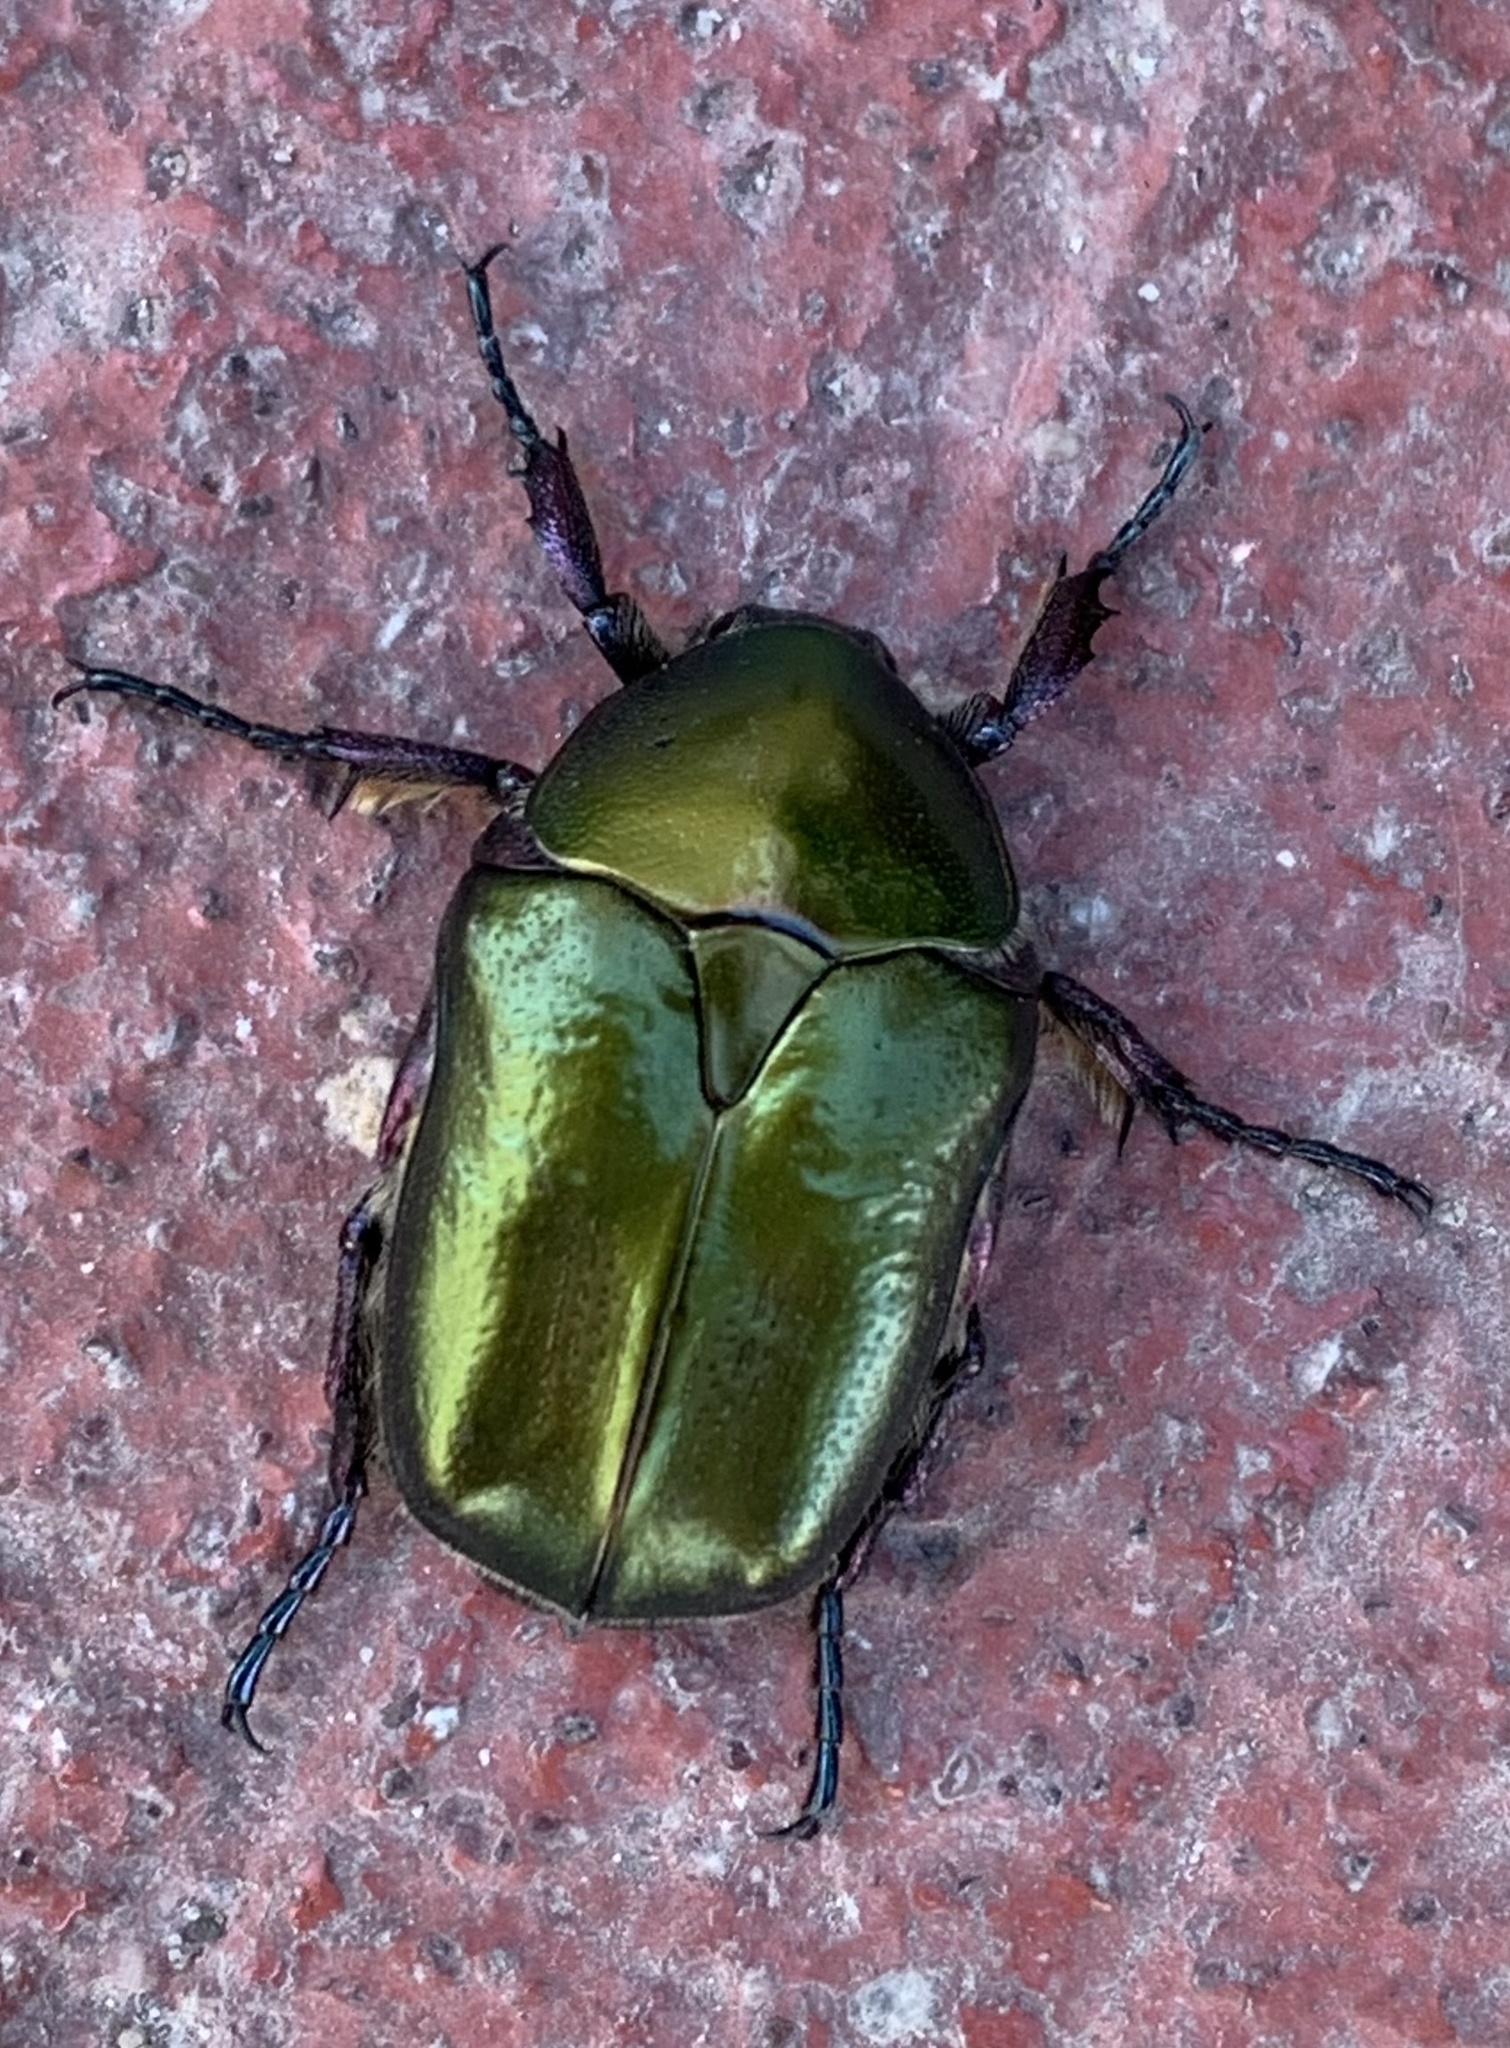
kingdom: Animalia
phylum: Arthropoda
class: Insecta
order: Coleoptera
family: Scarabaeidae
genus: Protaetia
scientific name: Protaetia cuprea
